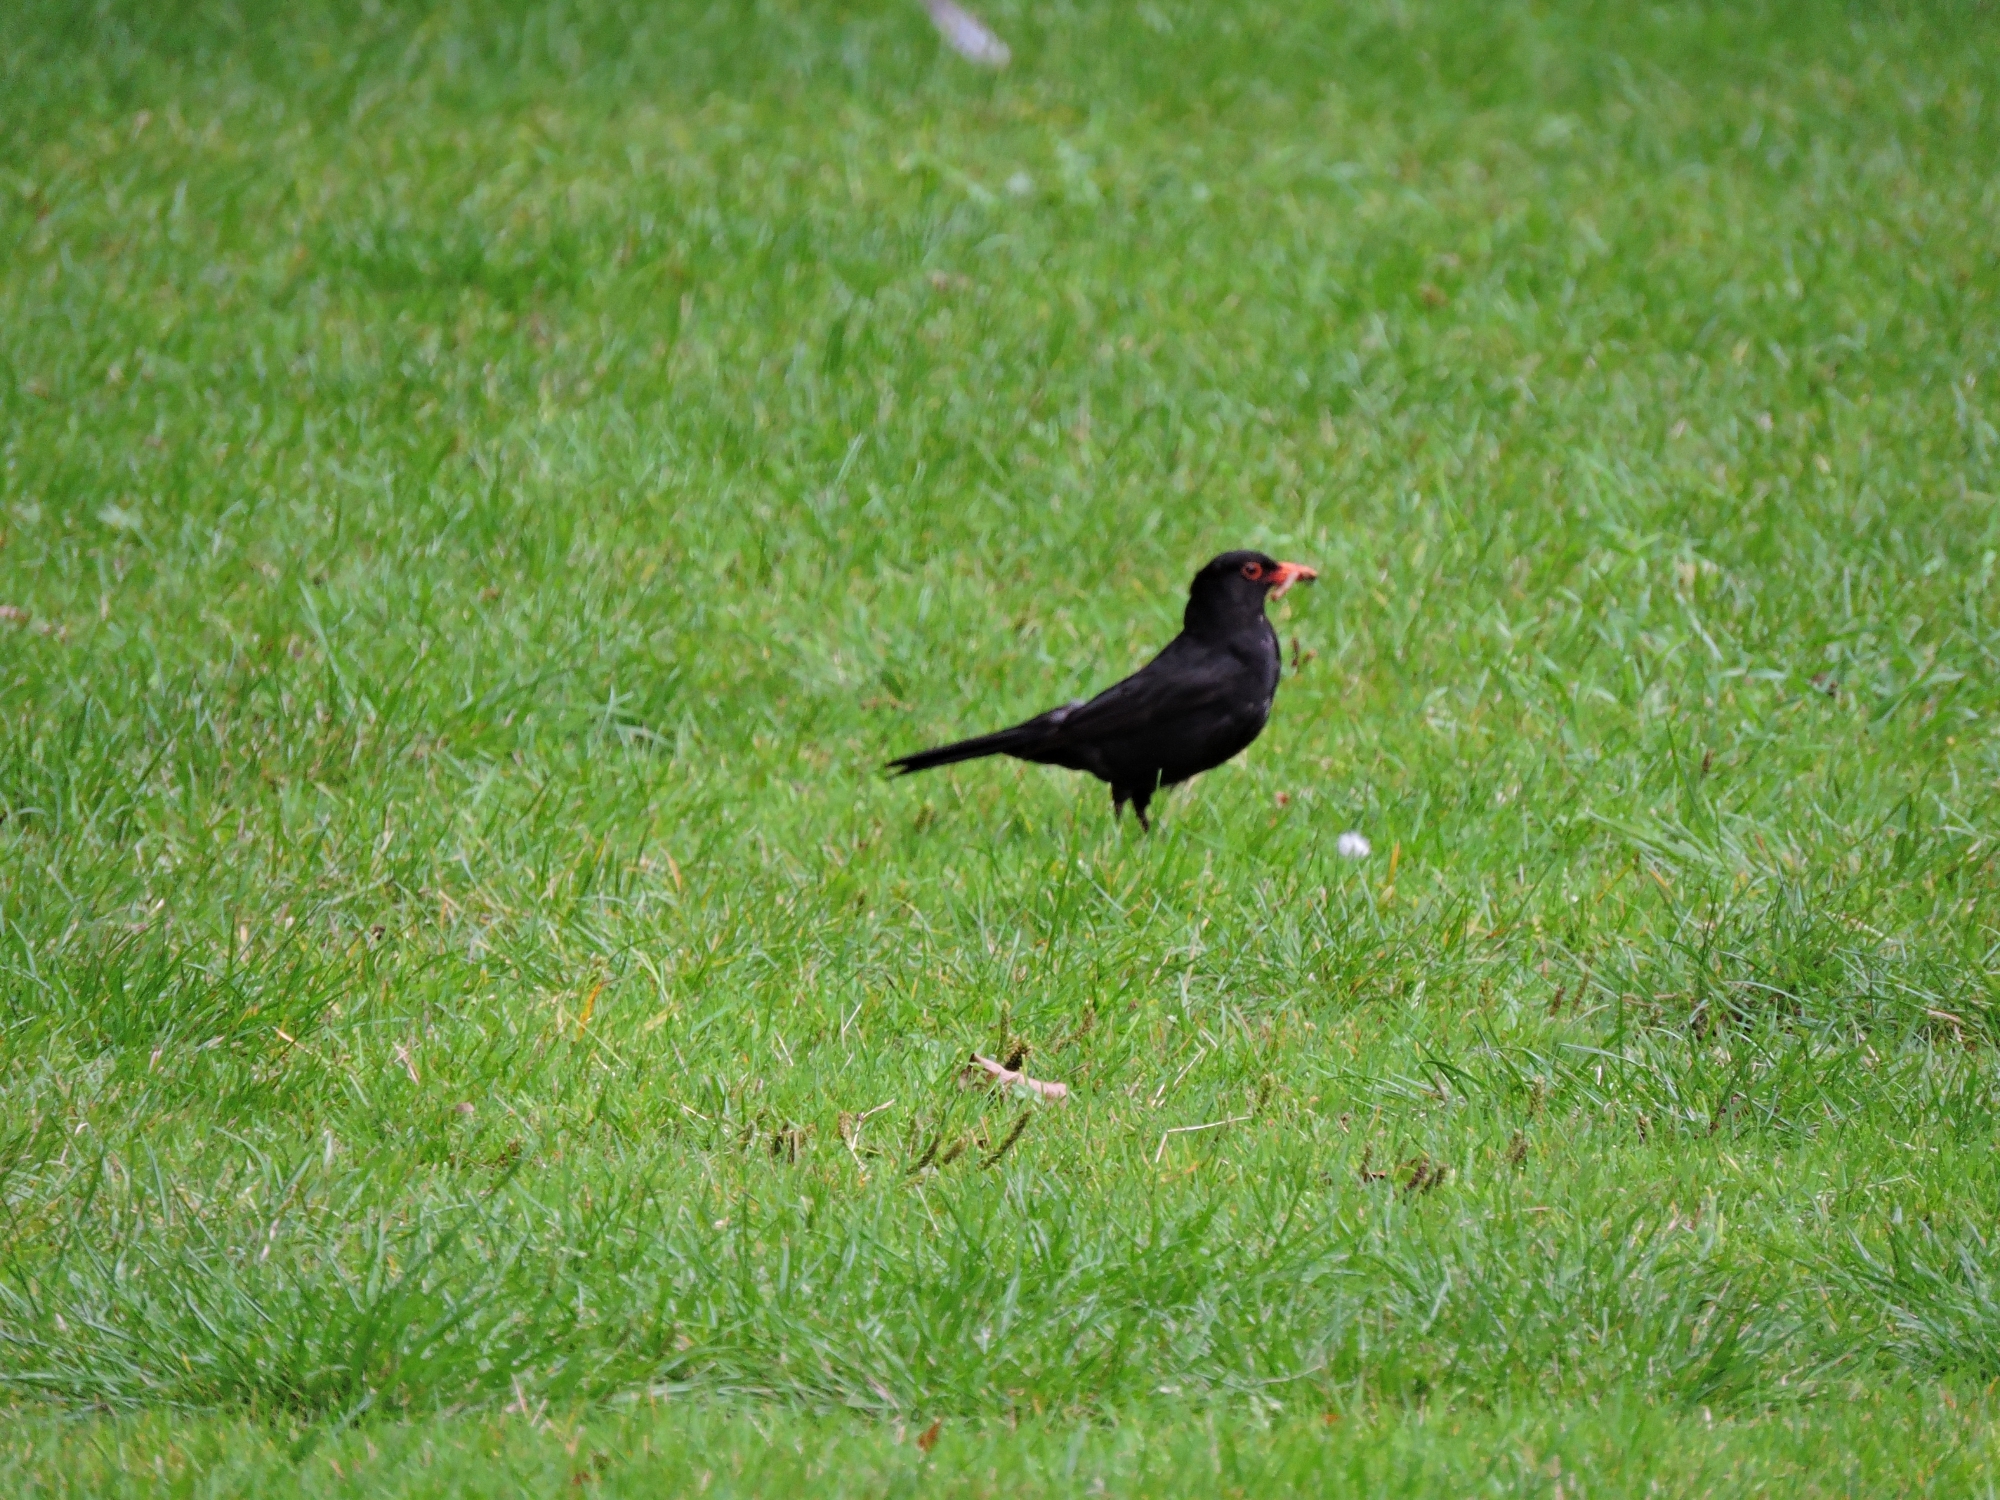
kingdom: Animalia
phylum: Chordata
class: Aves
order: Passeriformes
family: Turdidae
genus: Turdus
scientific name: Turdus merula
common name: Common blackbird
